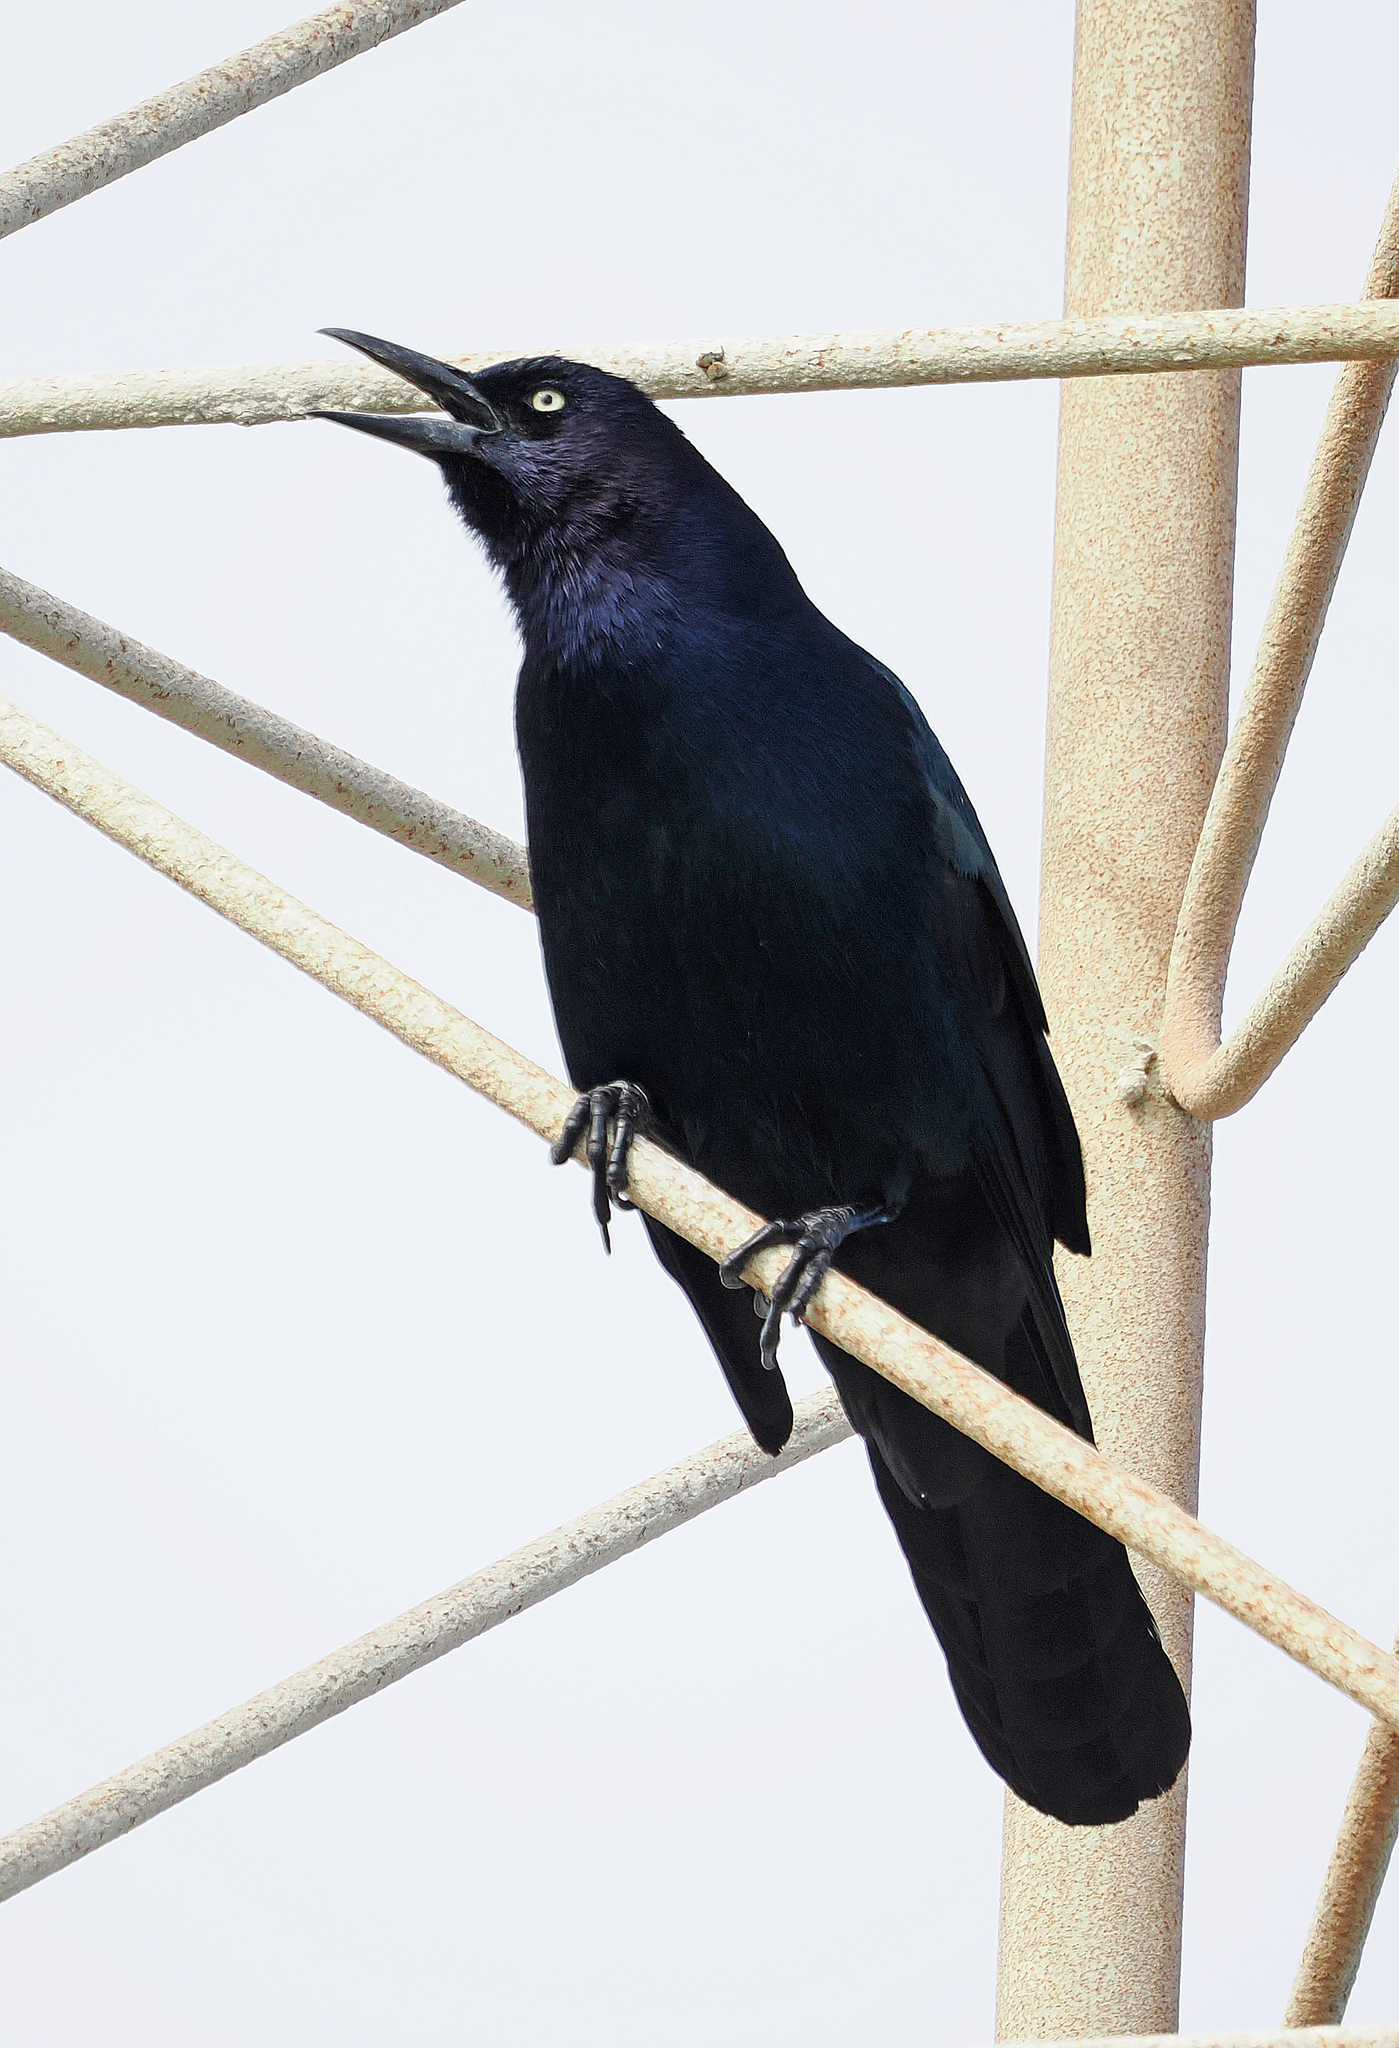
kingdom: Animalia
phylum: Chordata
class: Aves
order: Passeriformes
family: Icteridae
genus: Quiscalus
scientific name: Quiscalus major
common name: Boat-tailed grackle
